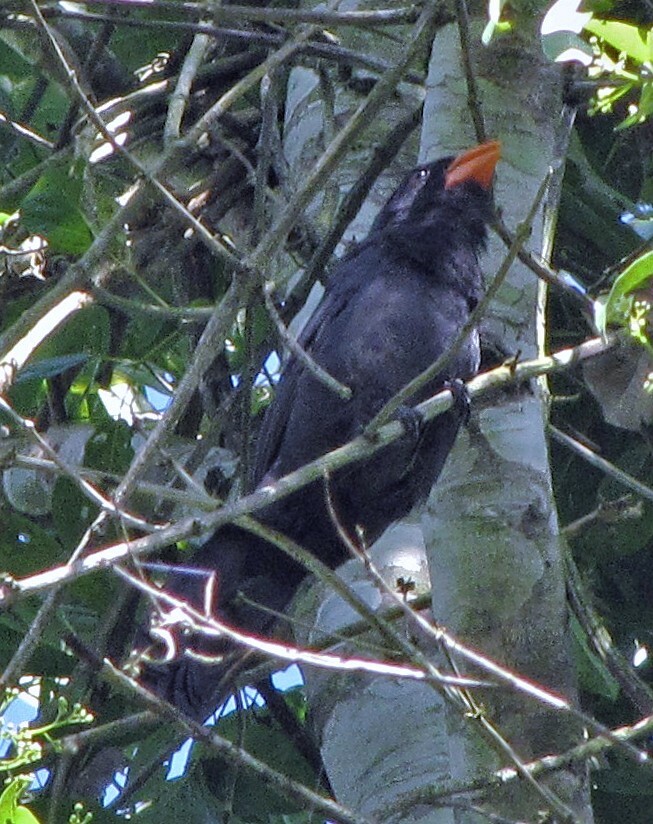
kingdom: Animalia
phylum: Chordata
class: Aves
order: Passeriformes
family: Thraupidae
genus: Saltator
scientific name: Saltator fuliginosus
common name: Black-throated grosbeak
